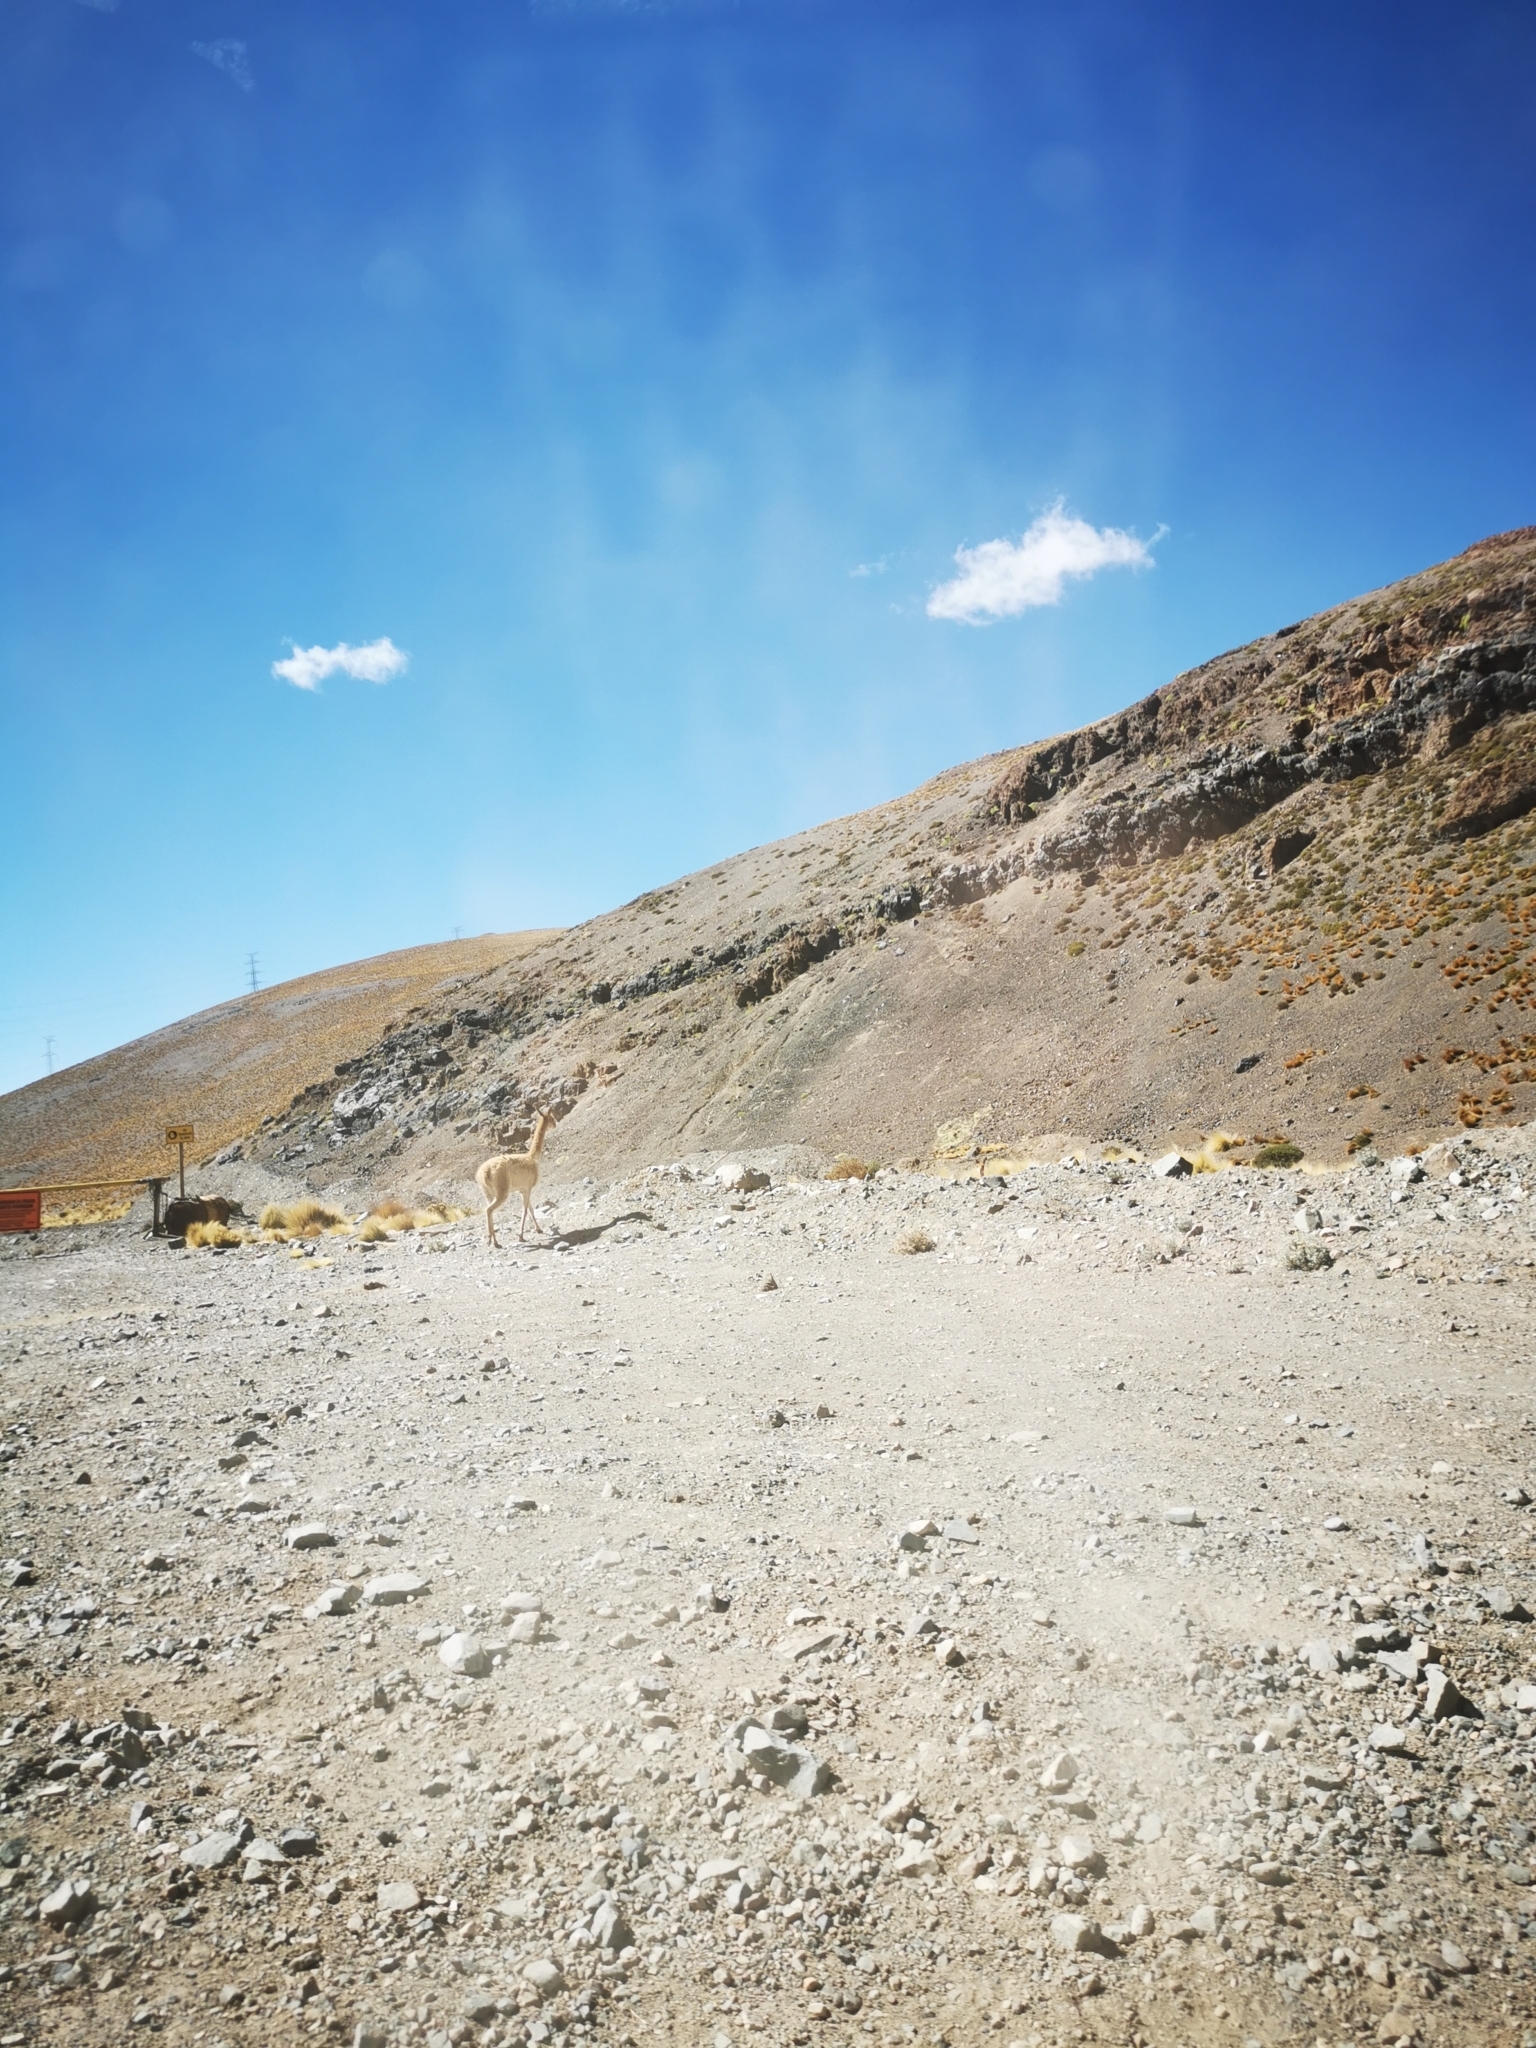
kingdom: Animalia
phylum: Chordata
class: Mammalia
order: Artiodactyla
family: Camelidae
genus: Vicugna
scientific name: Vicugna vicugna
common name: Vicugna
